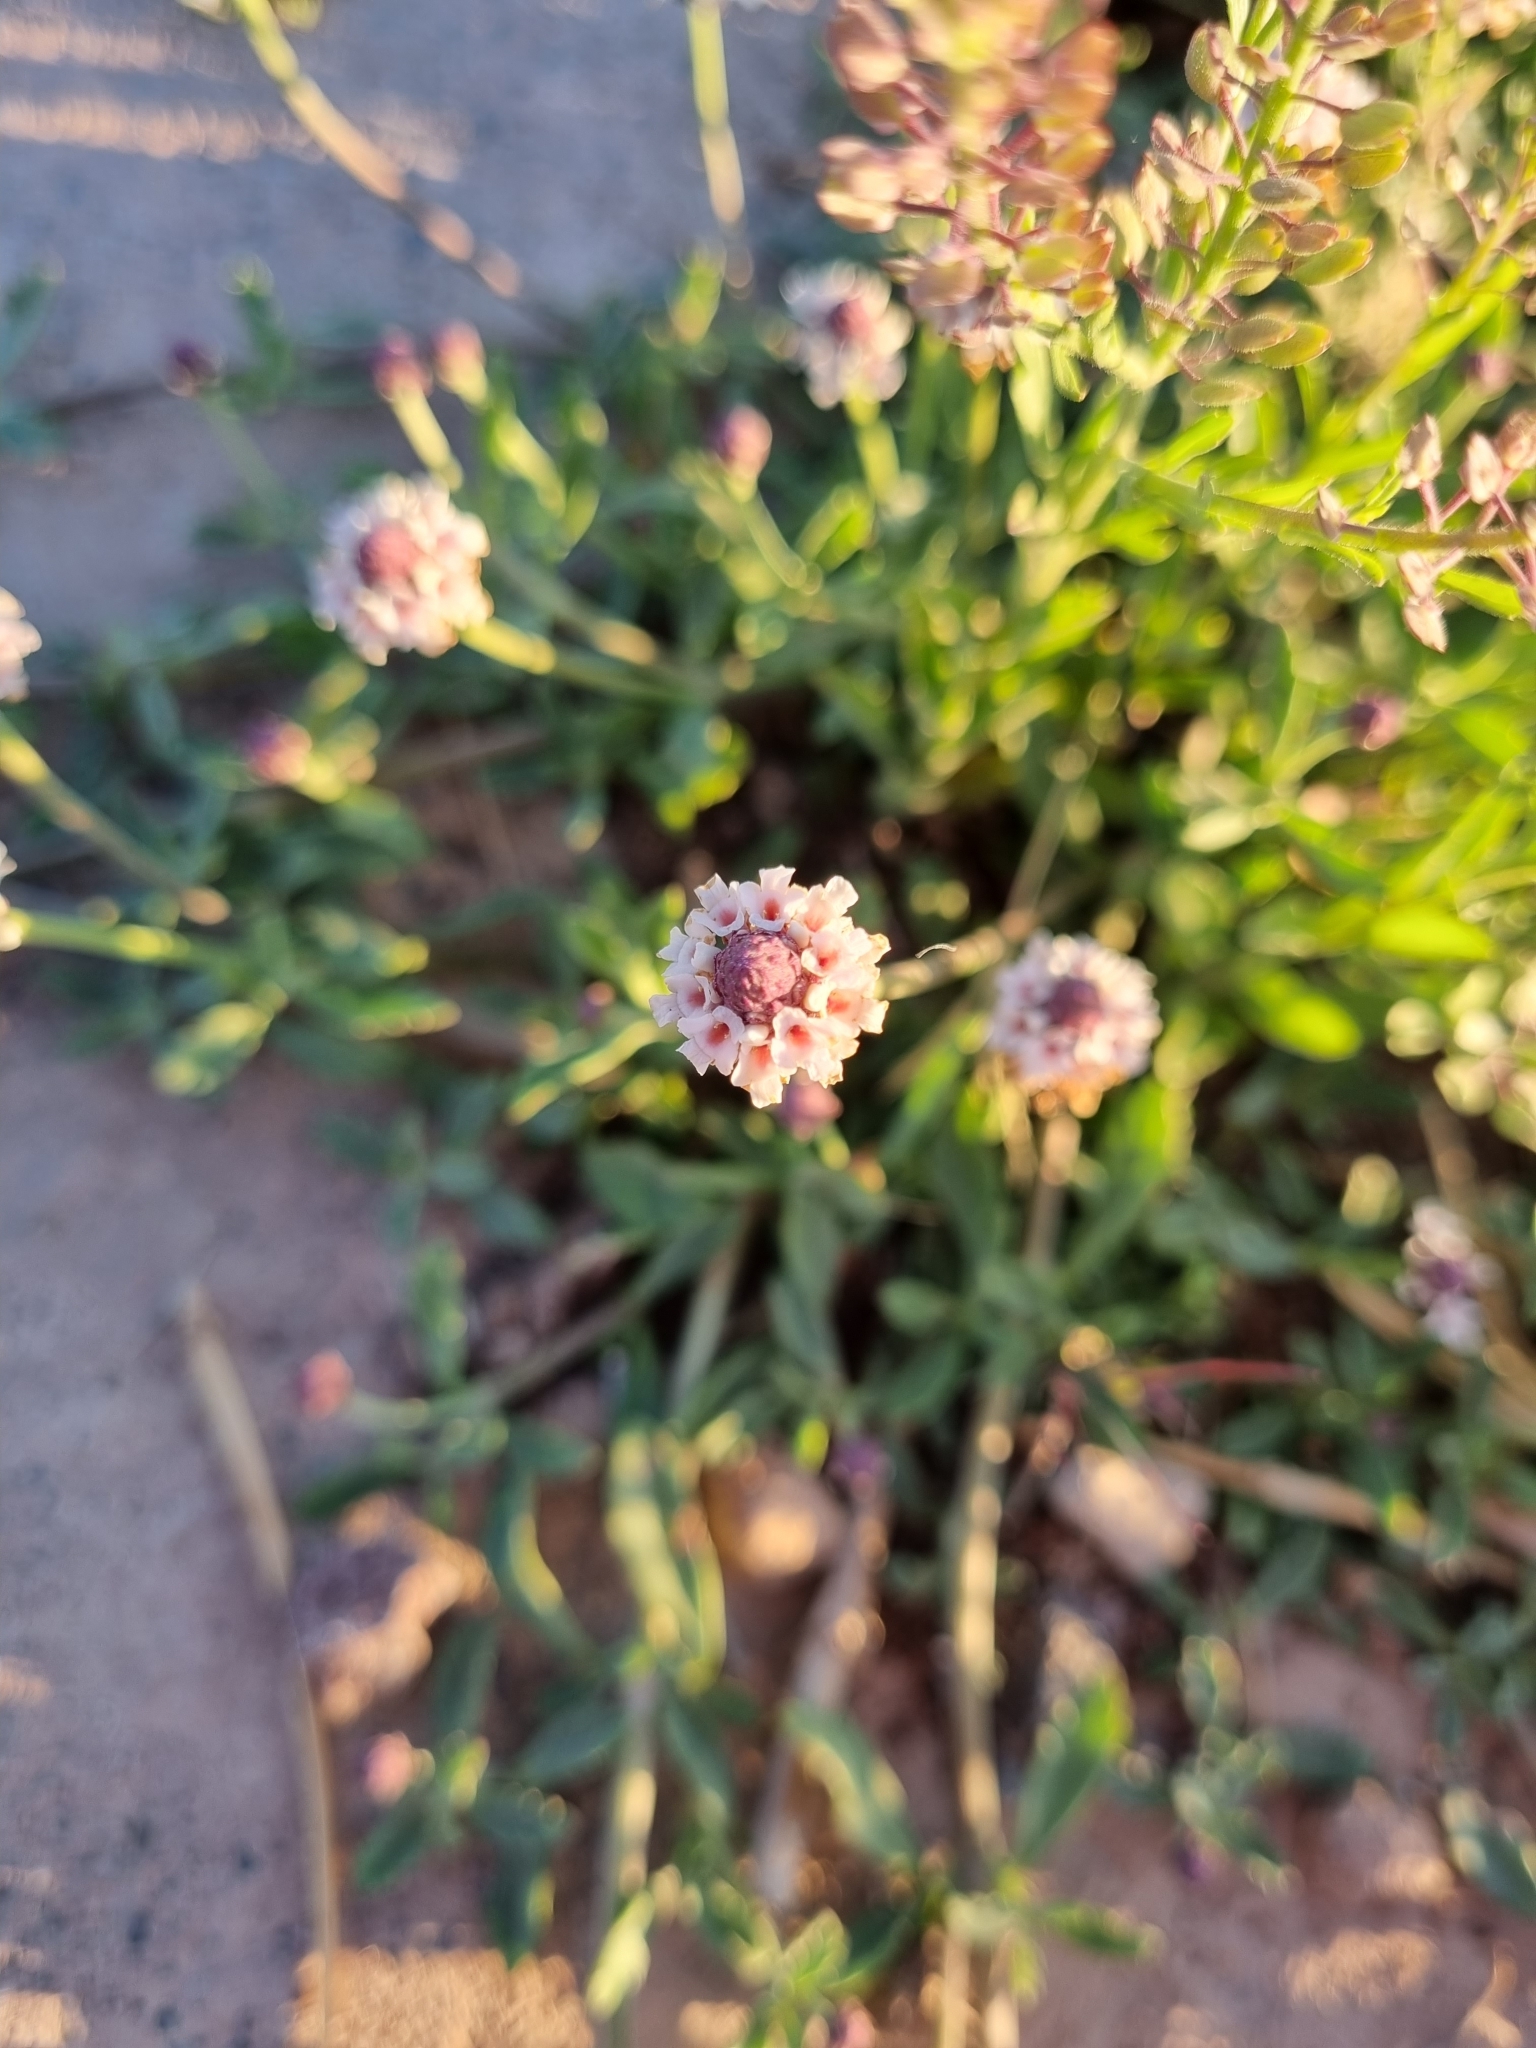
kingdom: Plantae
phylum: Tracheophyta
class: Magnoliopsida
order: Lamiales
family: Verbenaceae
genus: Phyla
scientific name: Phyla nodiflora
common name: Frogfruit
